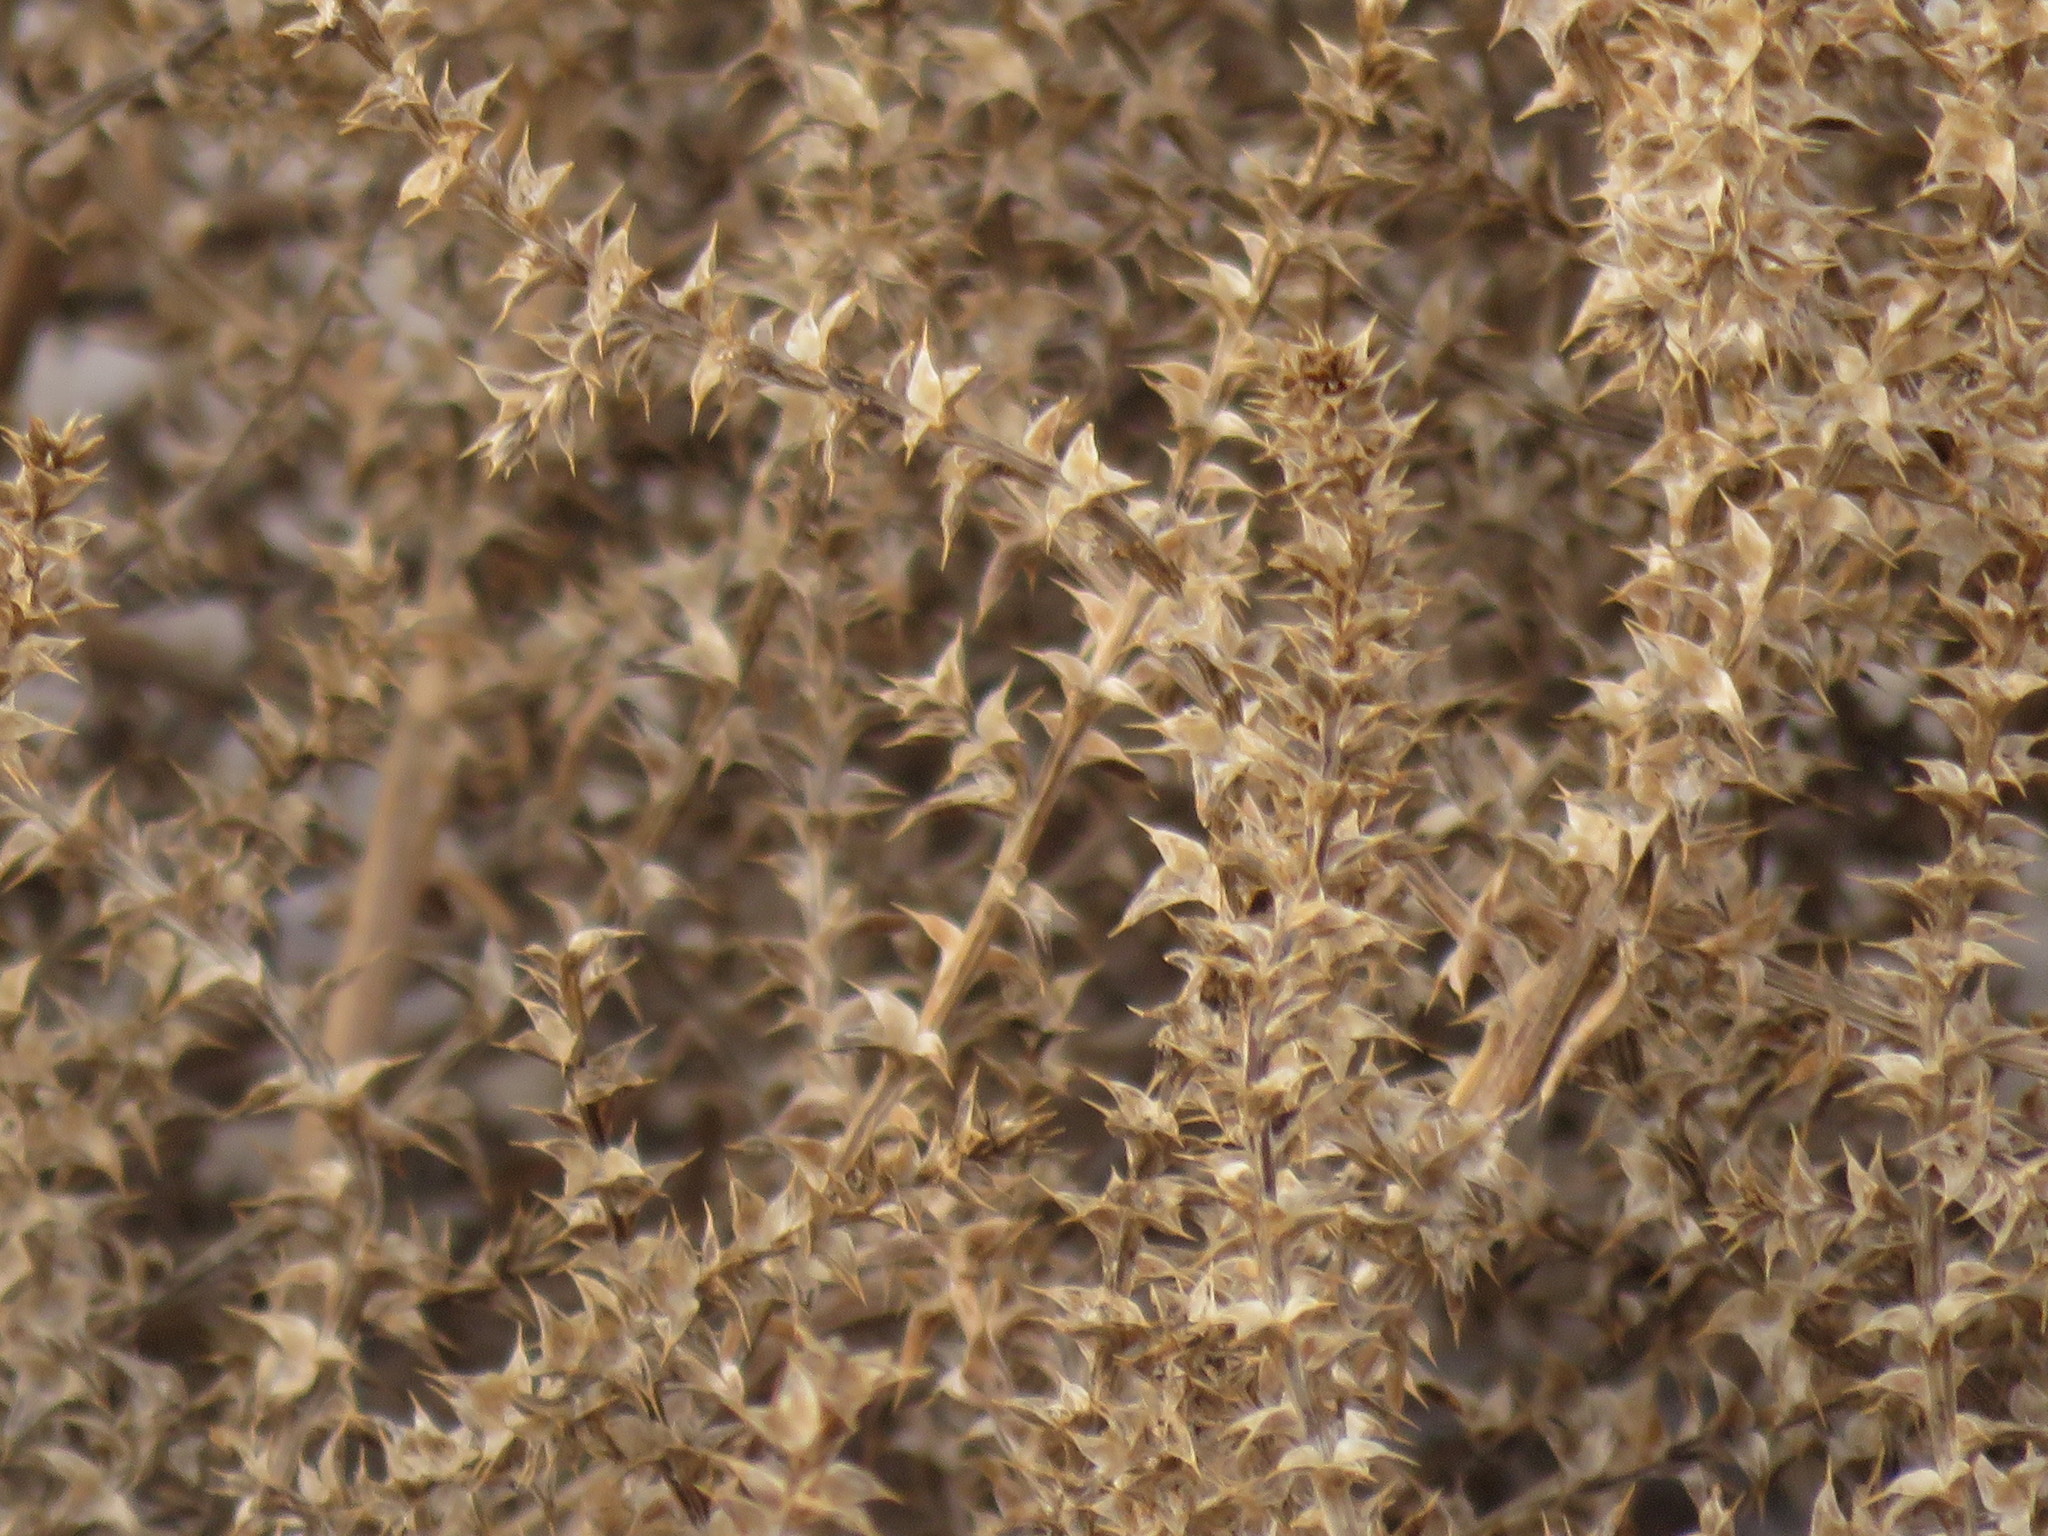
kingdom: Plantae
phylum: Tracheophyta
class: Magnoliopsida
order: Caryophyllales
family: Amaranthaceae
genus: Salsola
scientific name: Salsola tragus
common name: Prickly russian thistle
